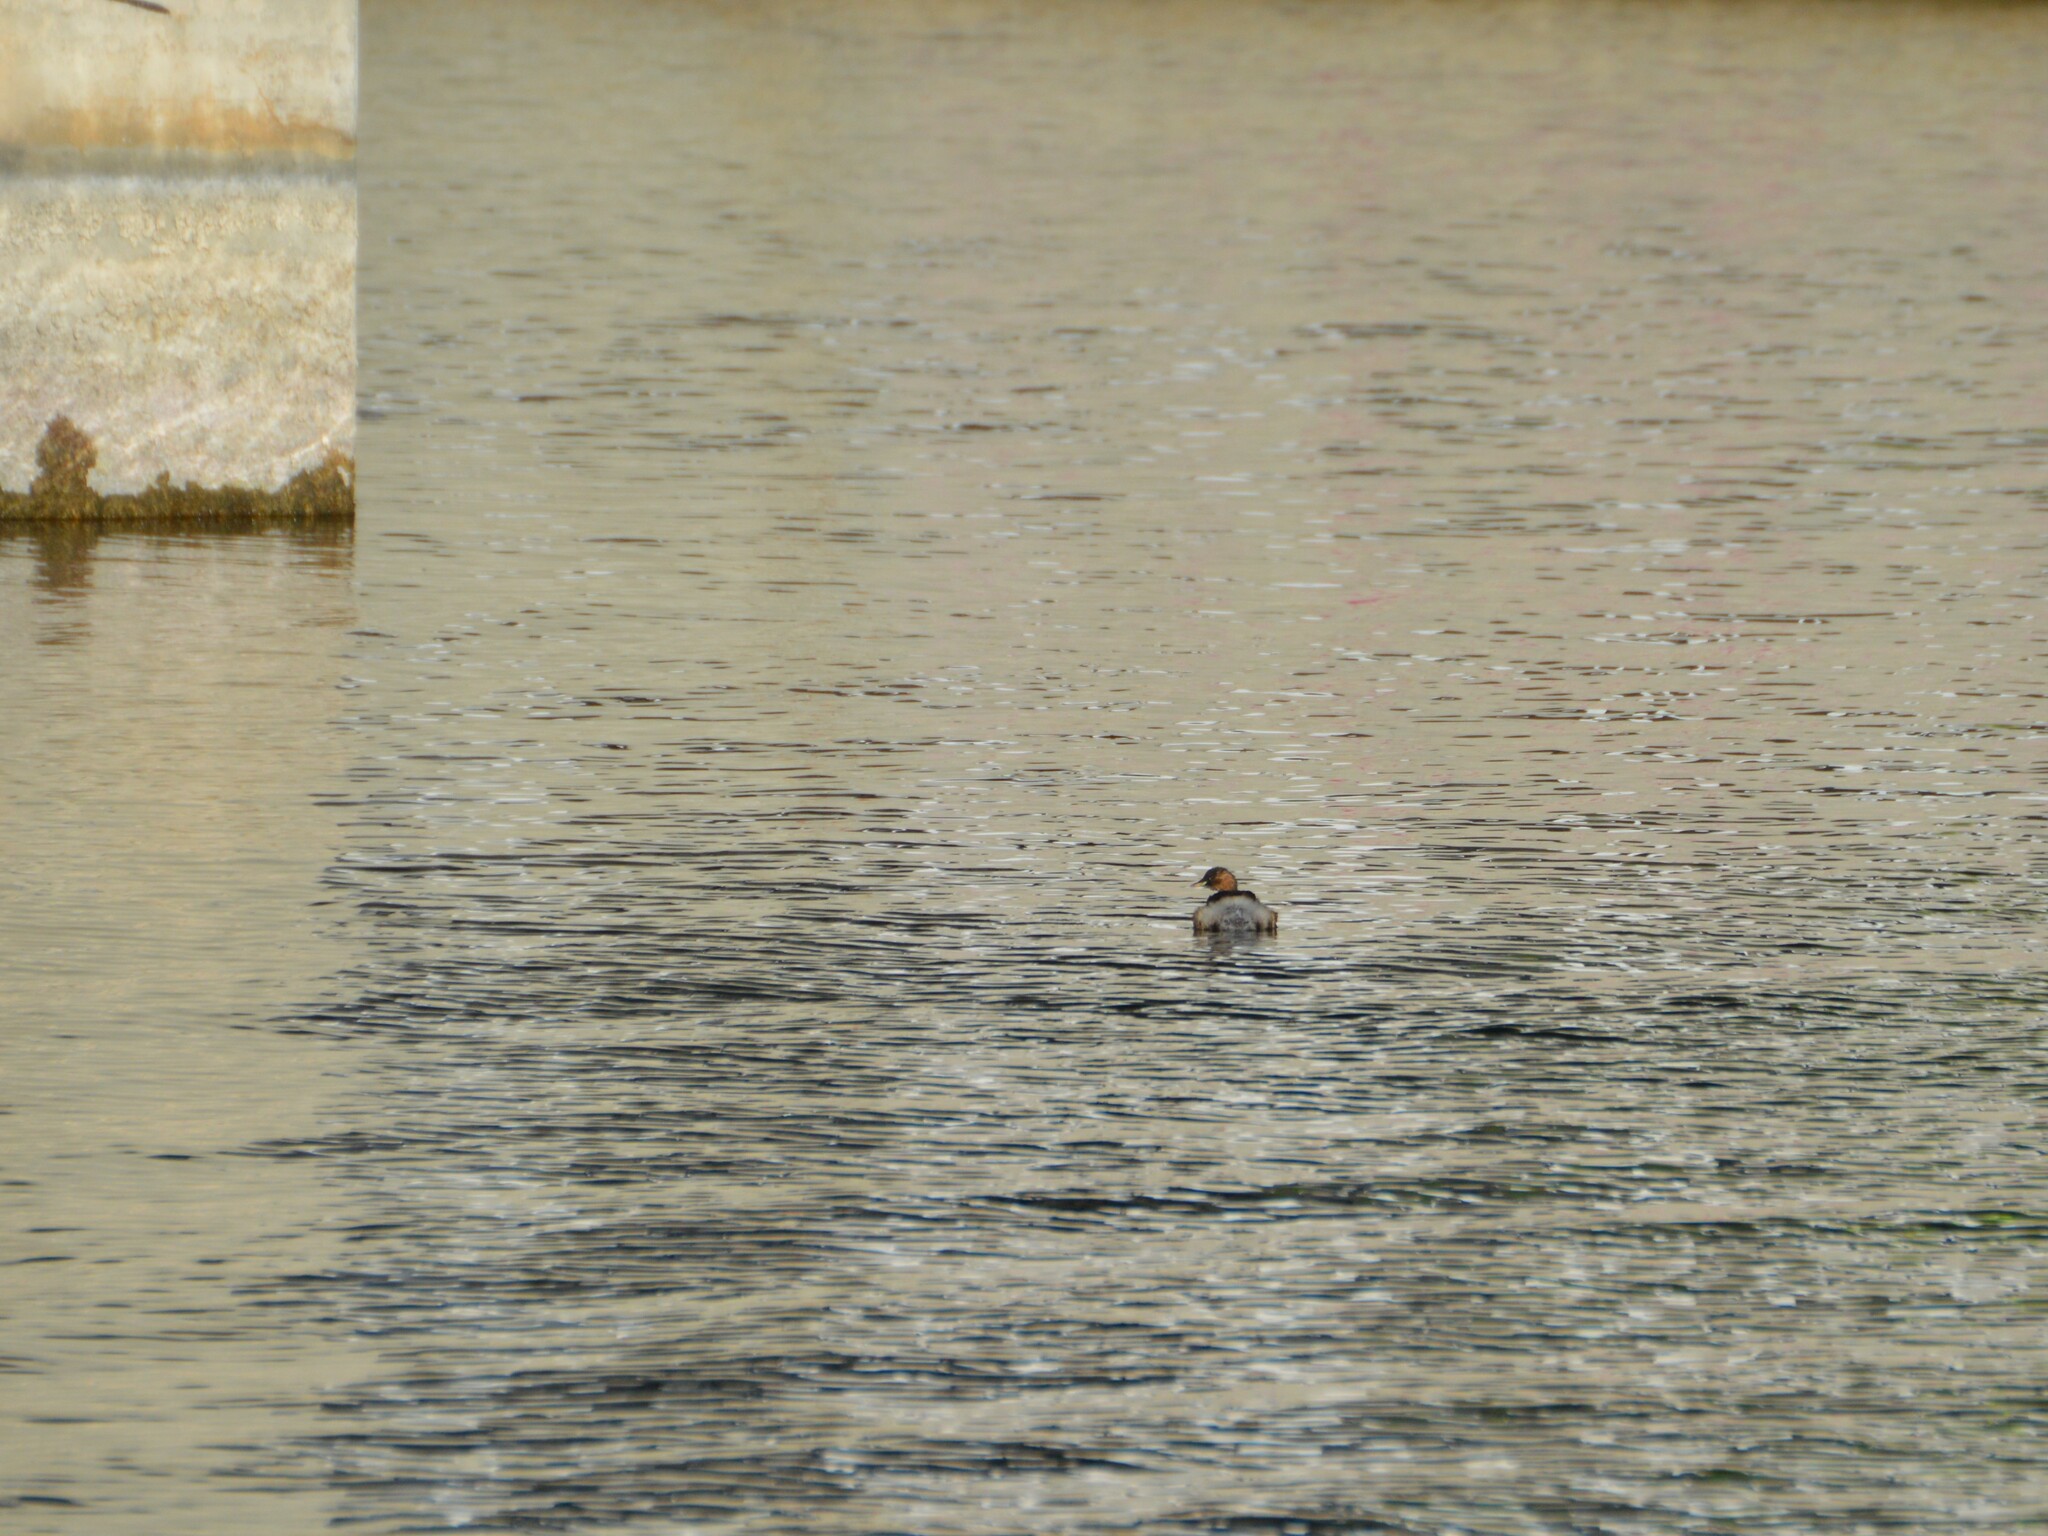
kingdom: Animalia
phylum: Chordata
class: Aves
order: Podicipediformes
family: Podicipedidae
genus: Tachybaptus
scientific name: Tachybaptus ruficollis
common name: Little grebe
